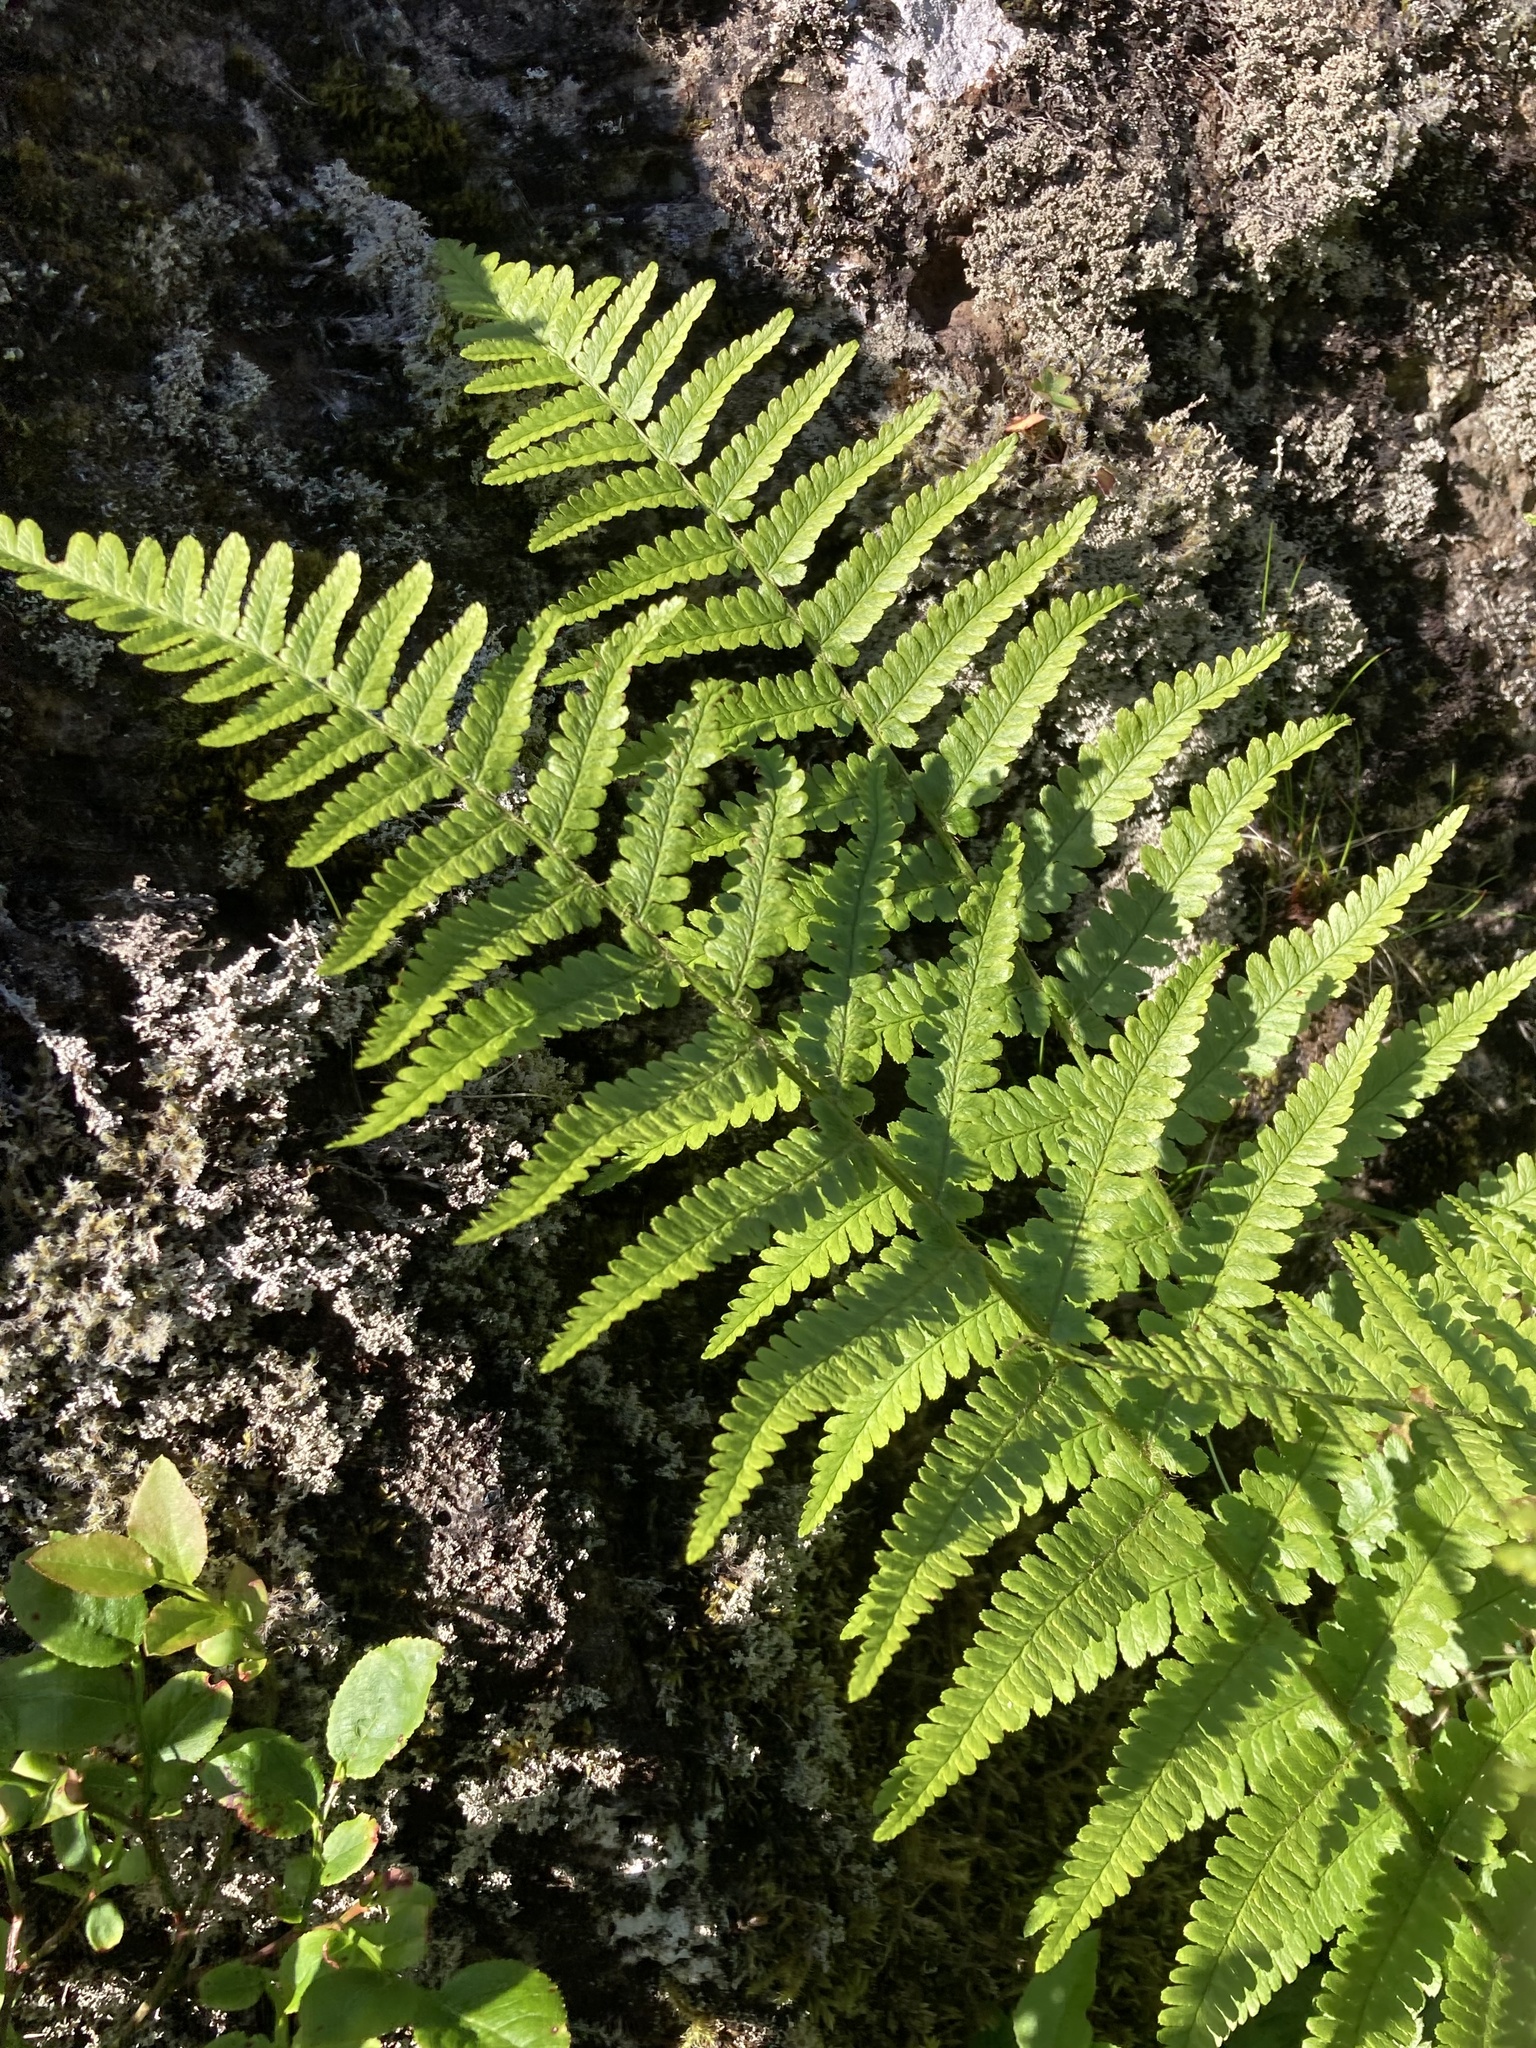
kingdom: Plantae
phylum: Tracheophyta
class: Polypodiopsida
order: Polypodiales
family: Dryopteridaceae
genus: Dryopteris
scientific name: Dryopteris filix-mas
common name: Male fern
